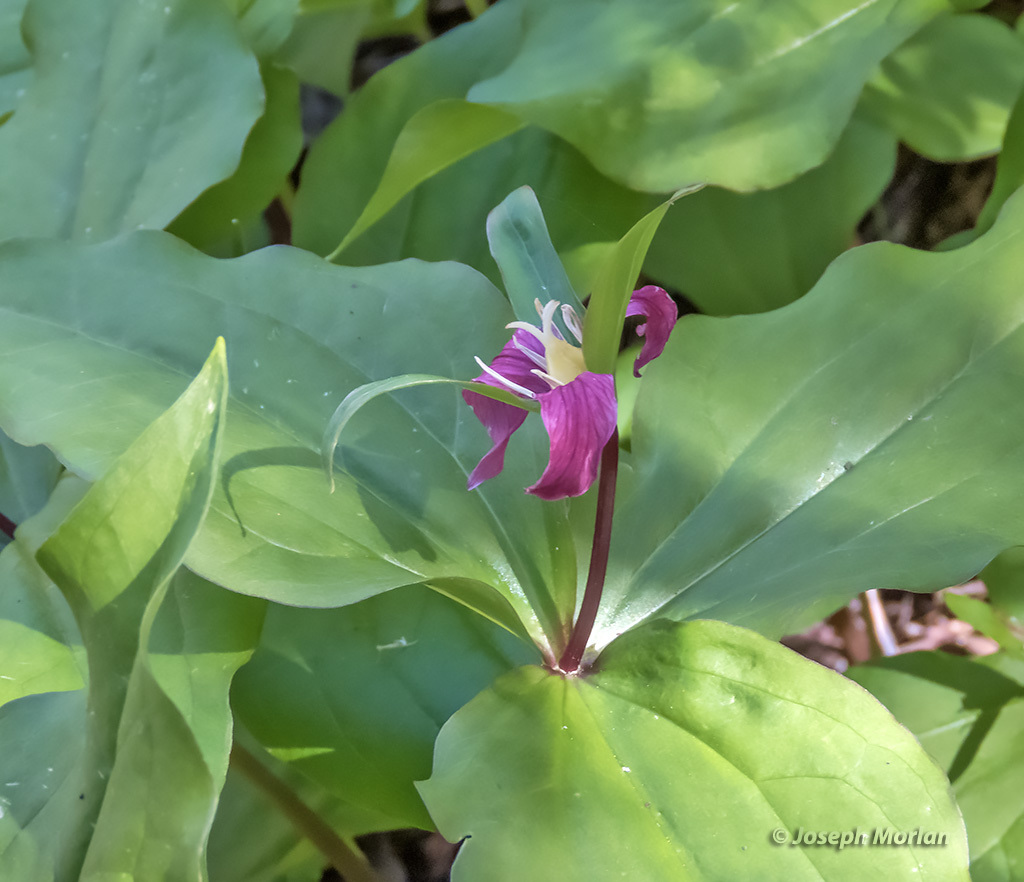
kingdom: Plantae
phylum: Tracheophyta
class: Liliopsida
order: Liliales
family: Melanthiaceae
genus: Trillium
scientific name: Trillium ovatum
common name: Pacific trillium
